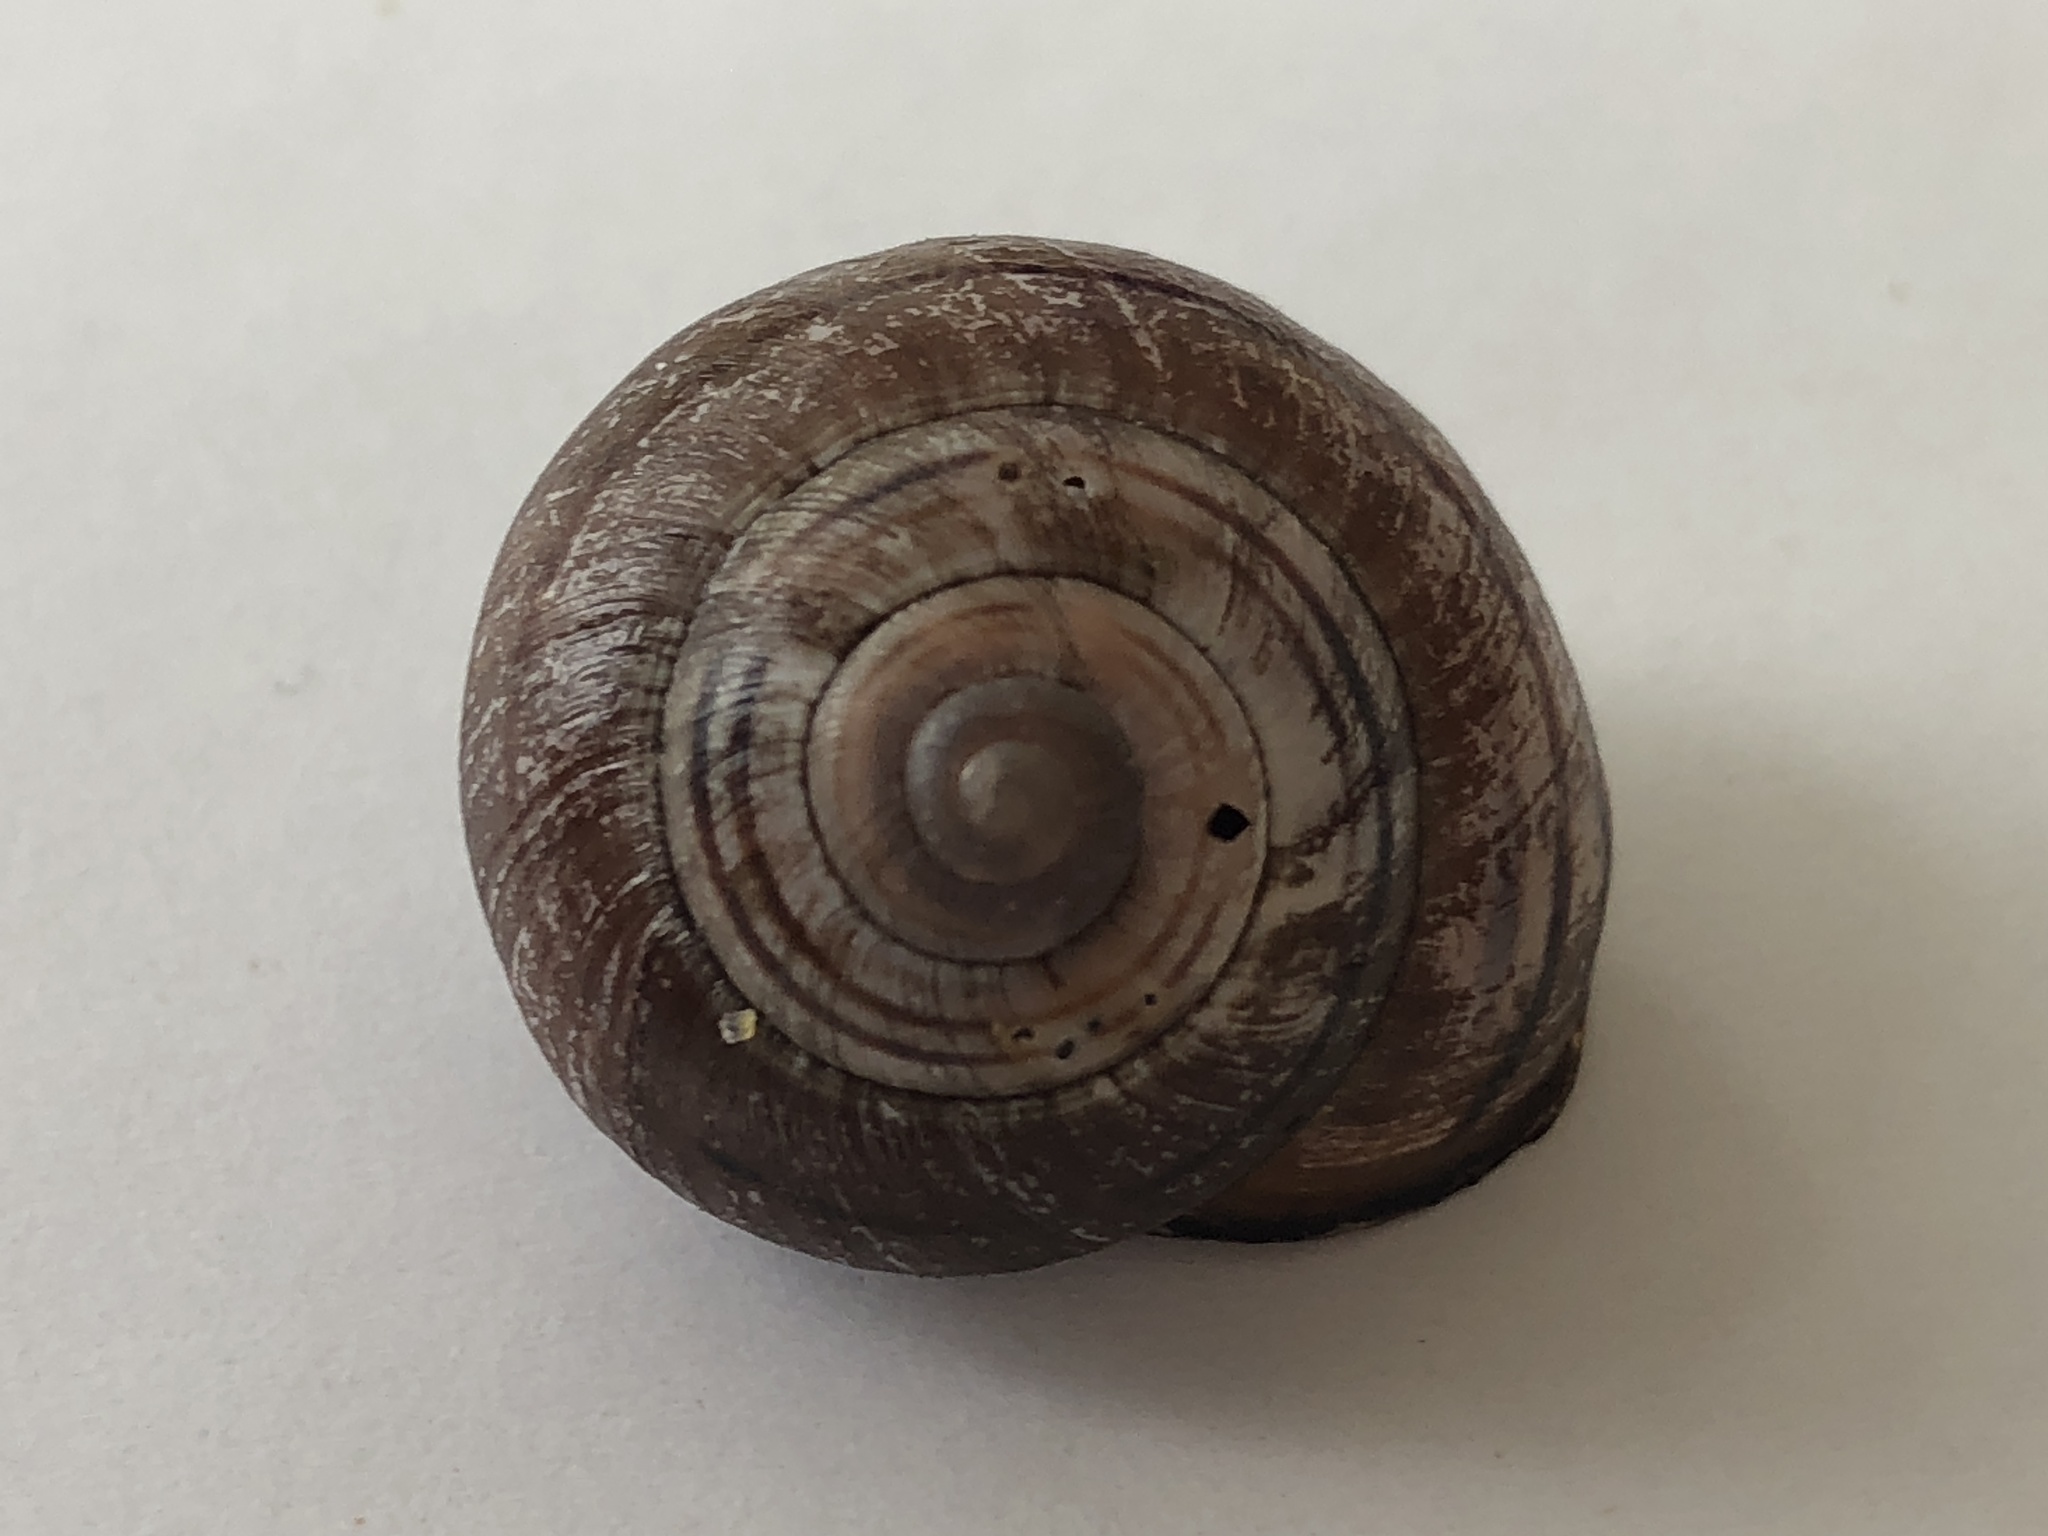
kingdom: Animalia
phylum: Mollusca
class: Gastropoda
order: Stylommatophora
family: Helicidae
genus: Cepaea
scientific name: Cepaea nemoralis
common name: Grovesnail
